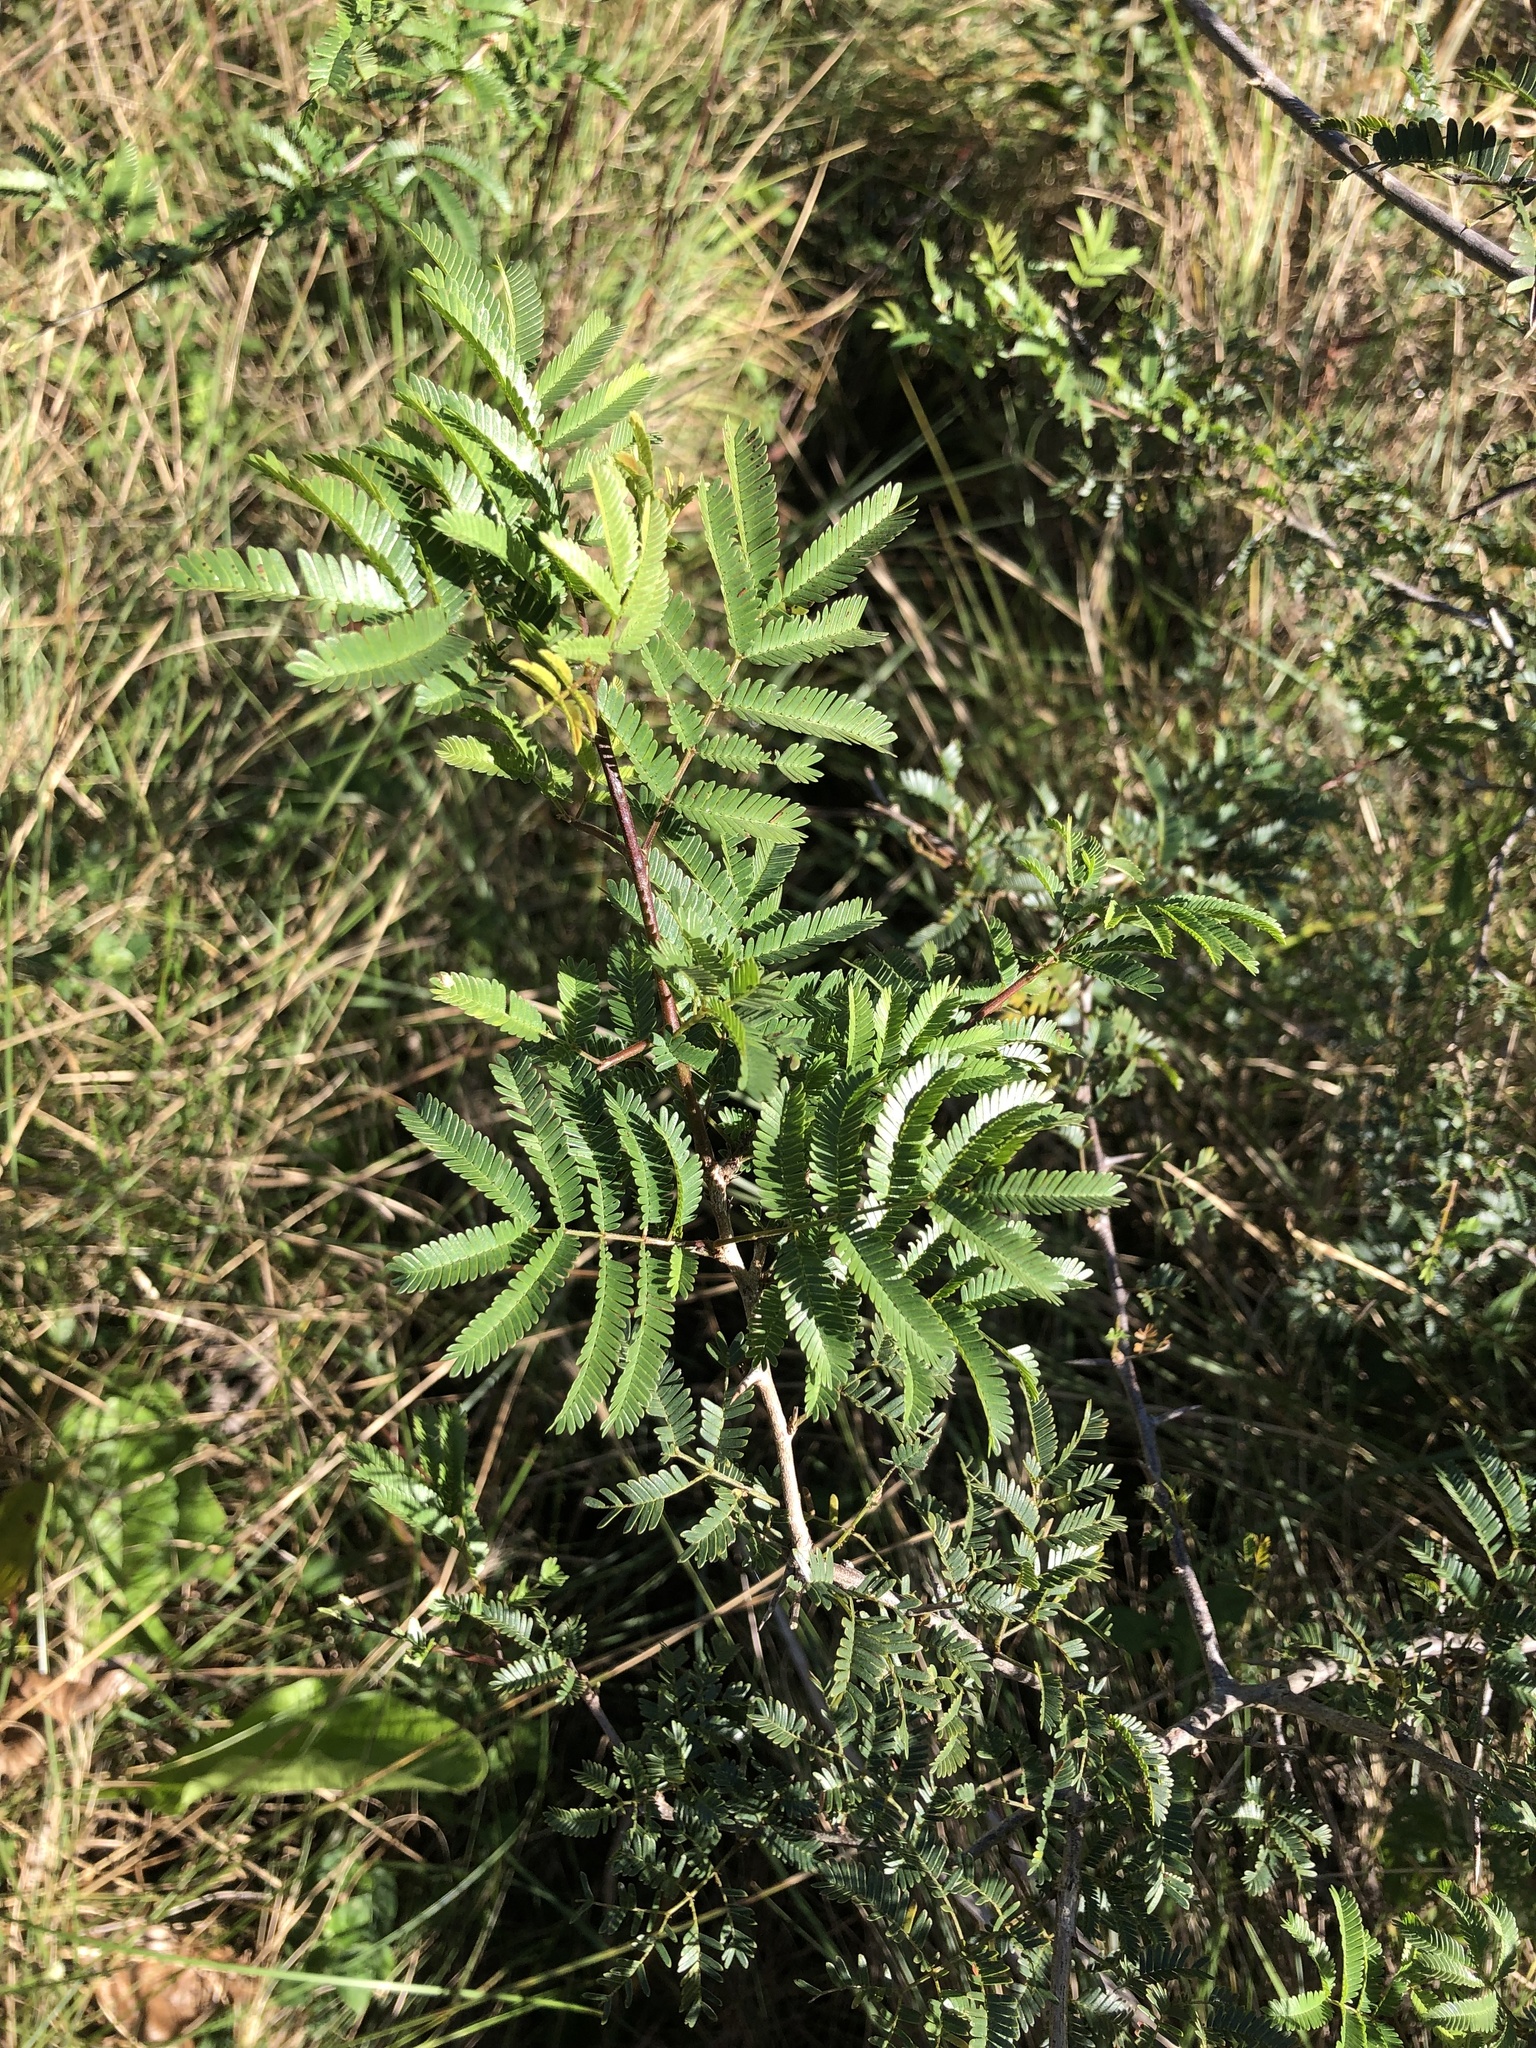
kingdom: Plantae
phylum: Tracheophyta
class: Magnoliopsida
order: Fabales
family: Fabaceae
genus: Dichrostachys
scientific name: Dichrostachys cinerea
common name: Sicklebush
